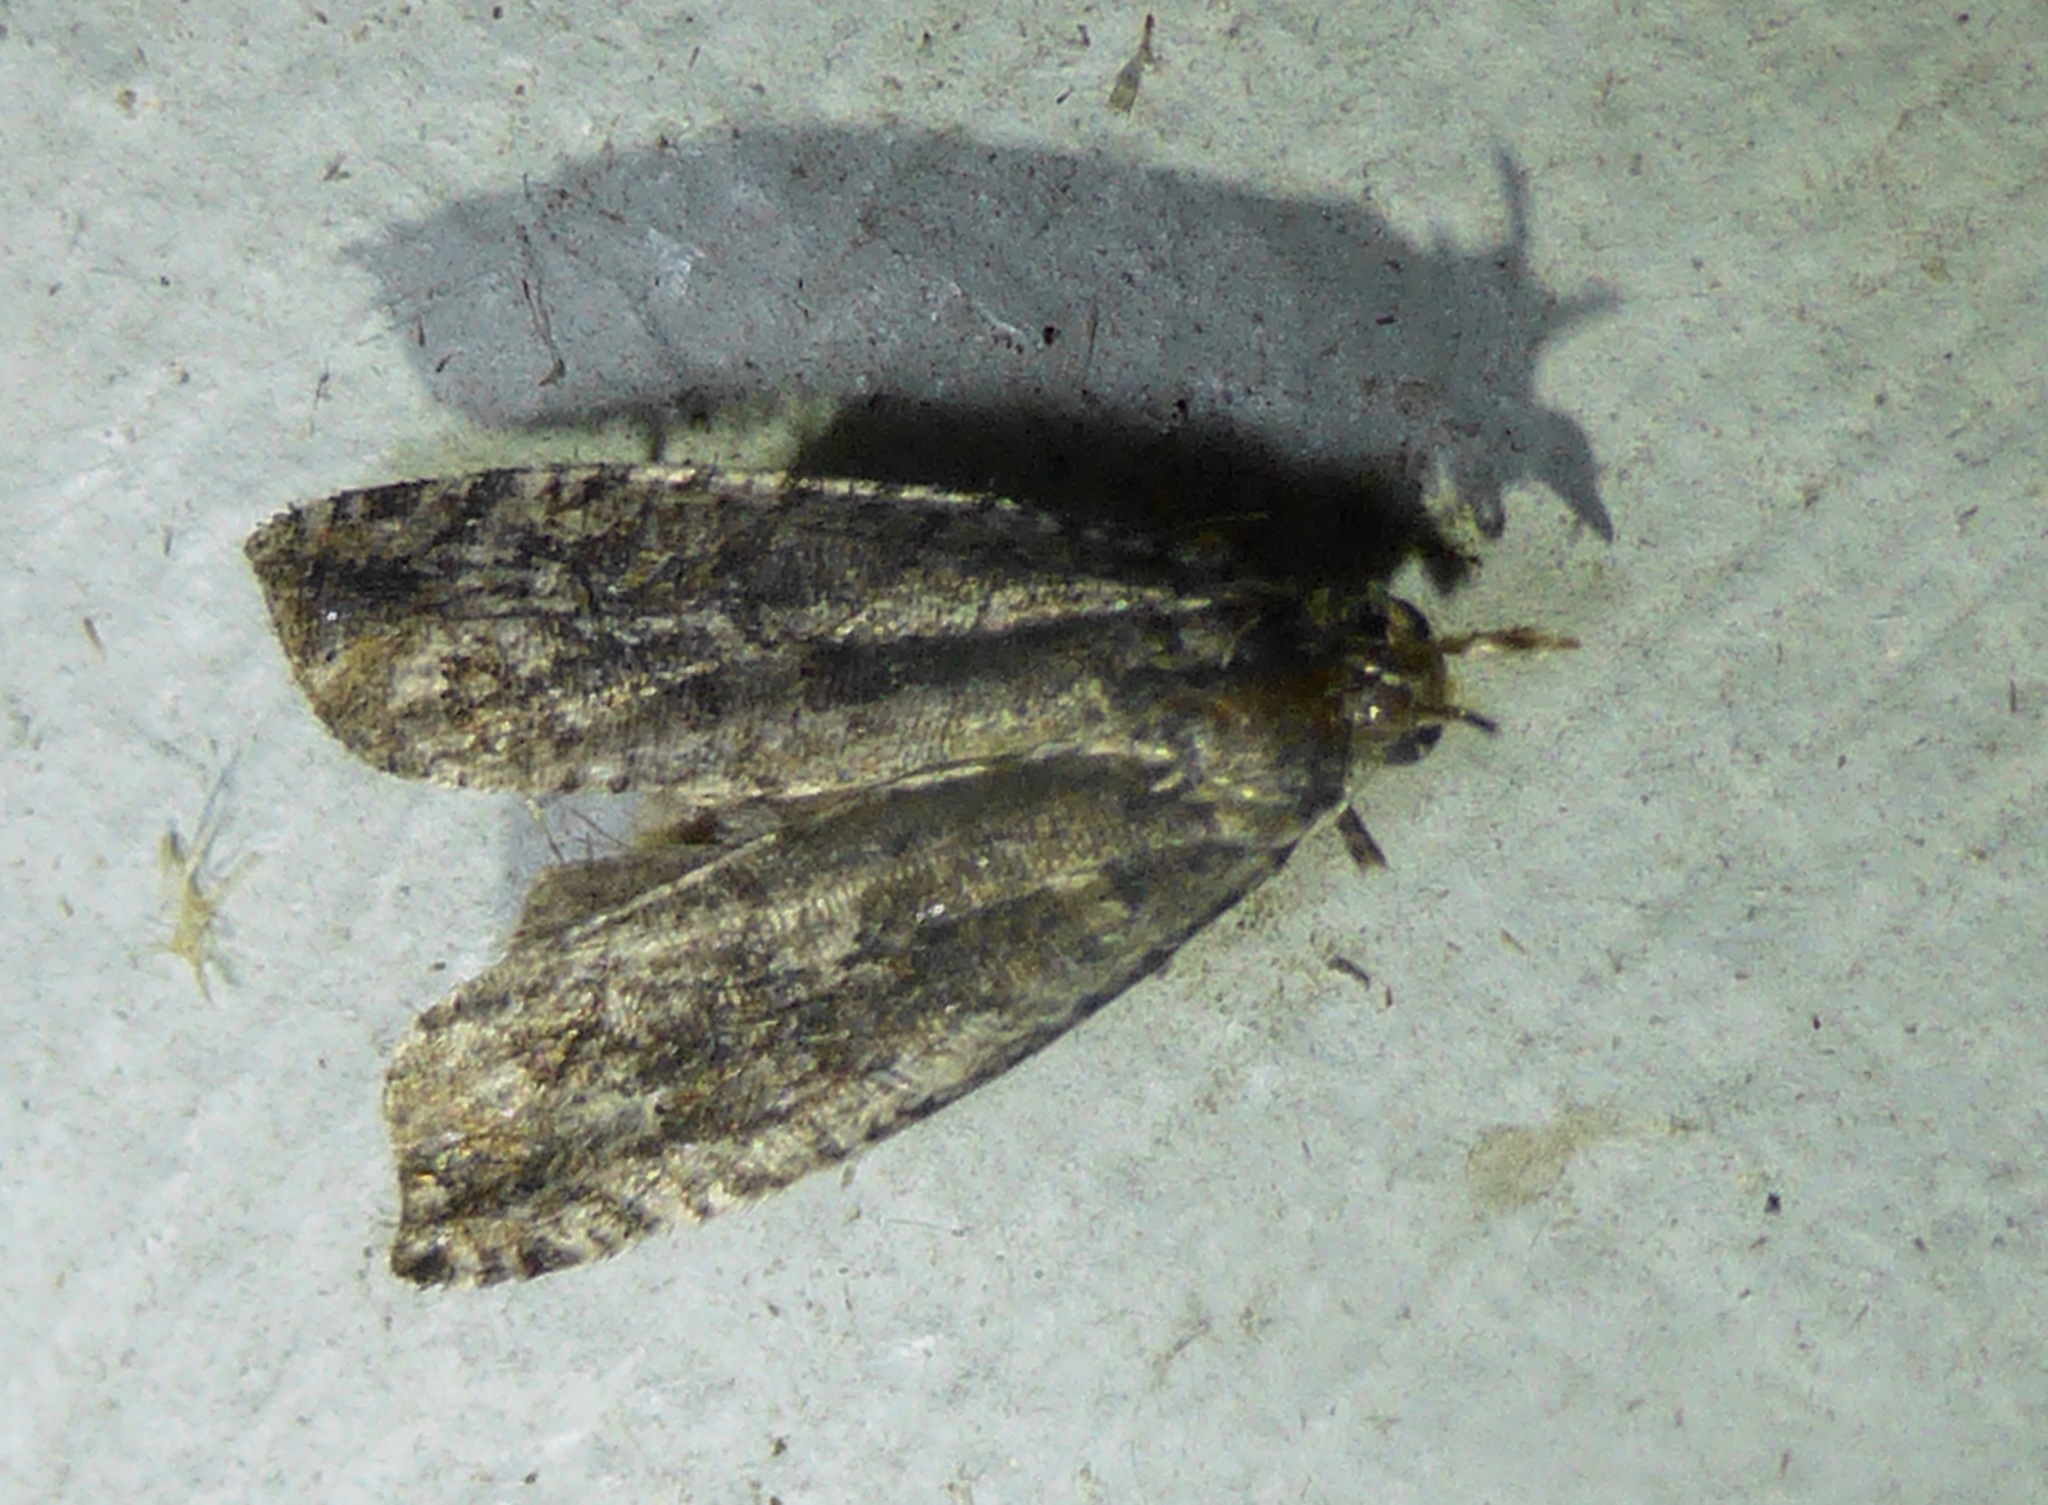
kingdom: Animalia
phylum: Arthropoda
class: Insecta
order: Lepidoptera
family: Tortricidae
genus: Cydia
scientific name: Cydia succedana
